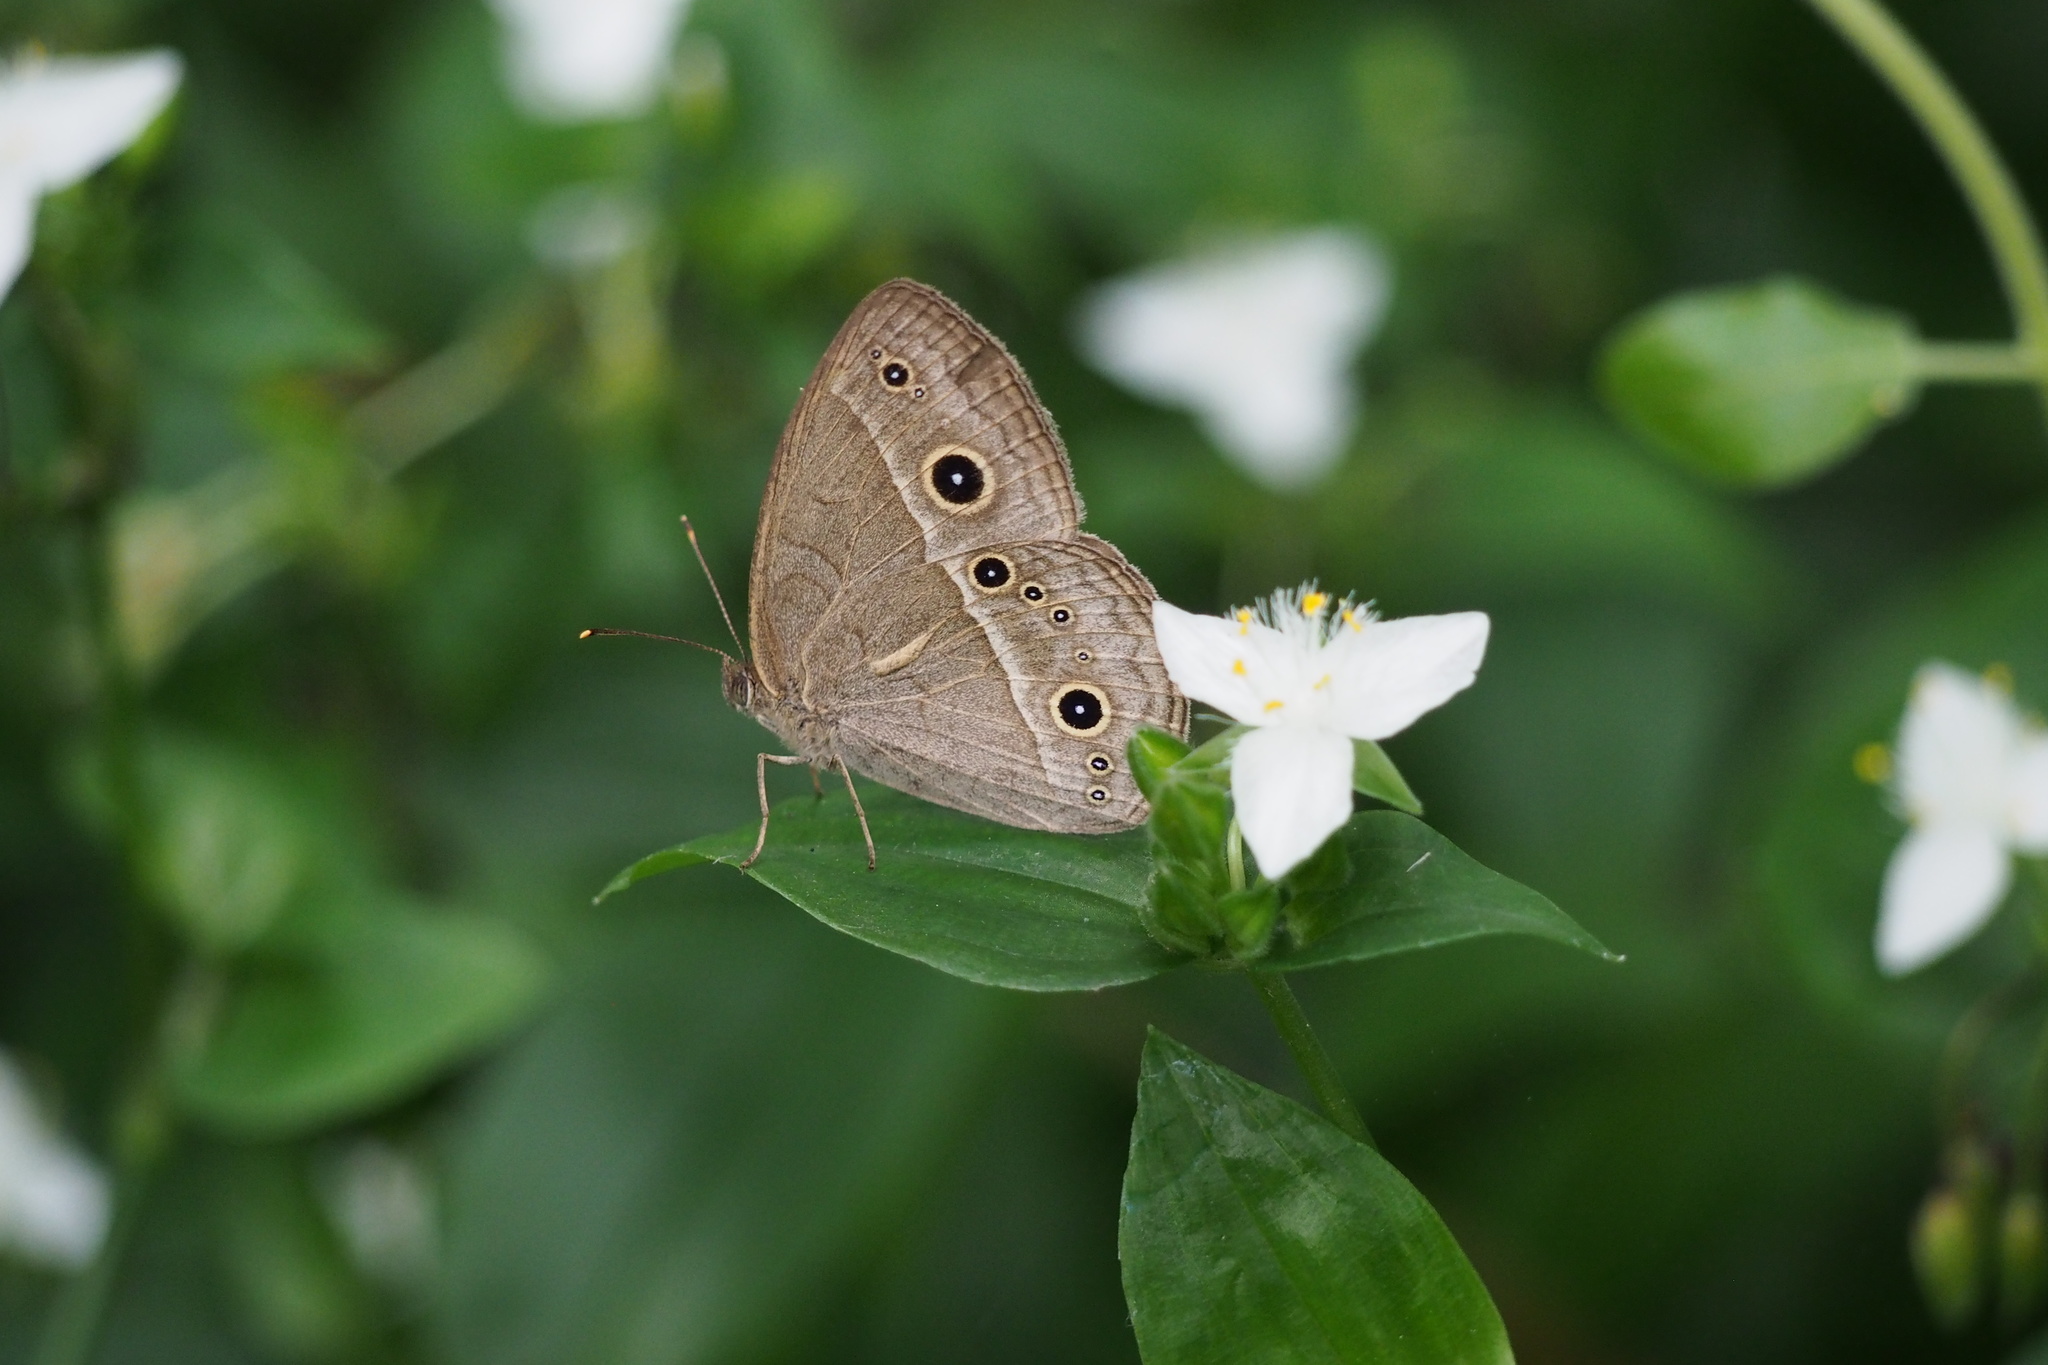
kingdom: Animalia
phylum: Arthropoda
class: Insecta
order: Lepidoptera
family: Nymphalidae
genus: Mycalesis
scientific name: Mycalesis gotama
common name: Chinese bushbrown
